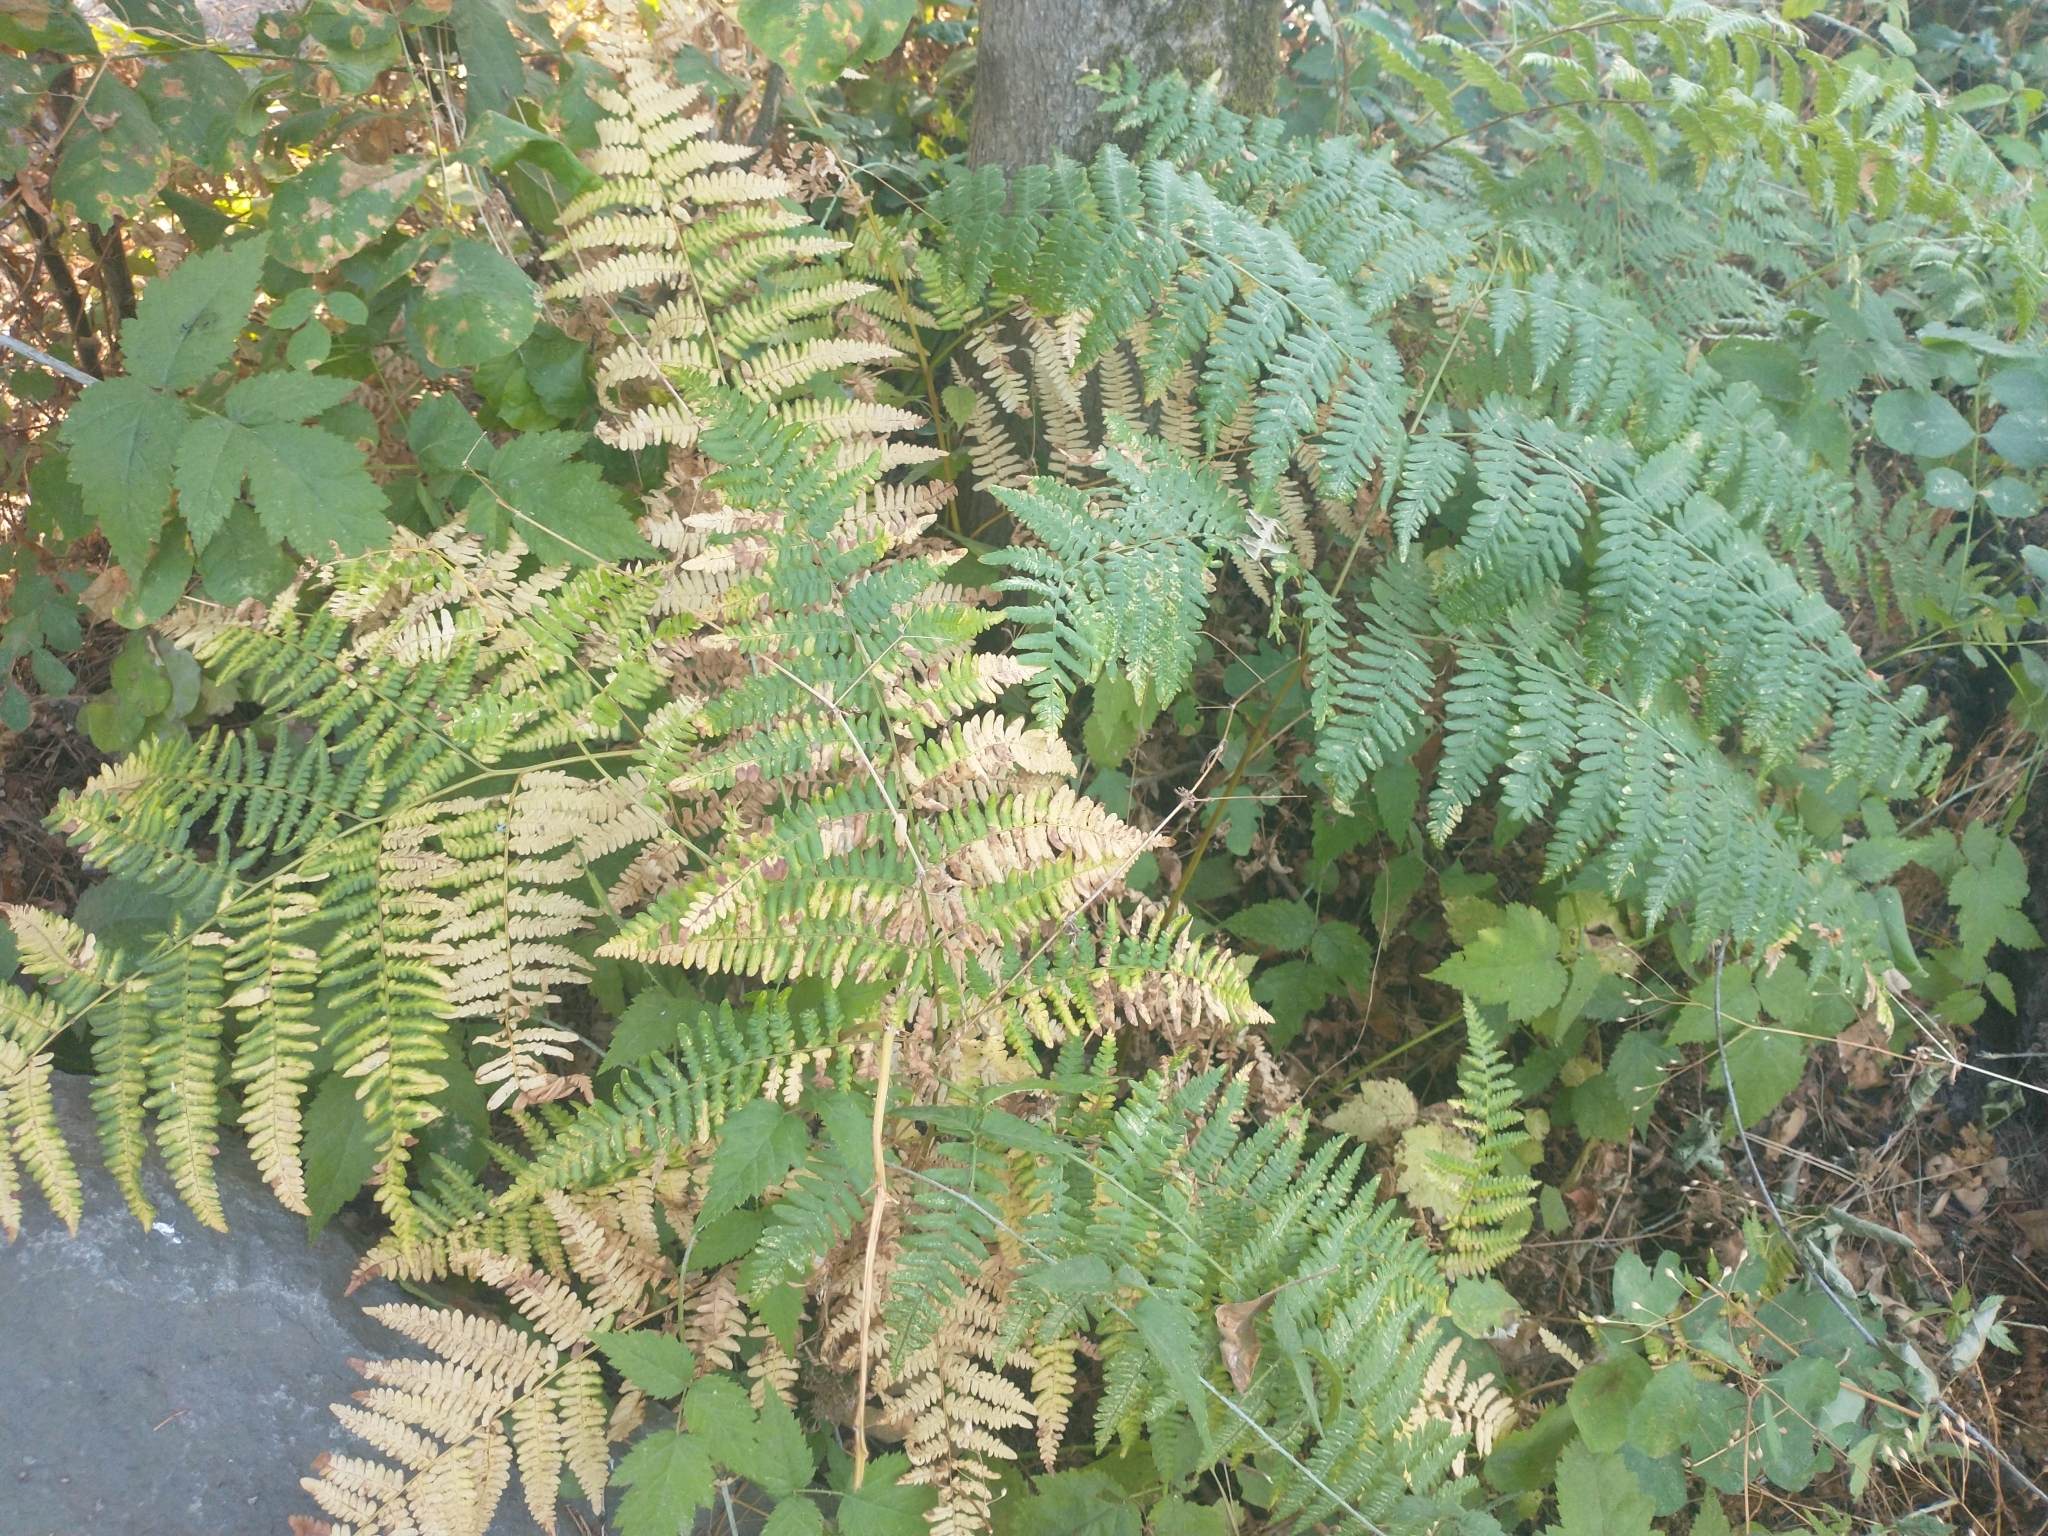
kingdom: Plantae
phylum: Tracheophyta
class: Polypodiopsida
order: Polypodiales
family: Dennstaedtiaceae
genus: Pteridium
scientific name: Pteridium aquilinum
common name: Bracken
